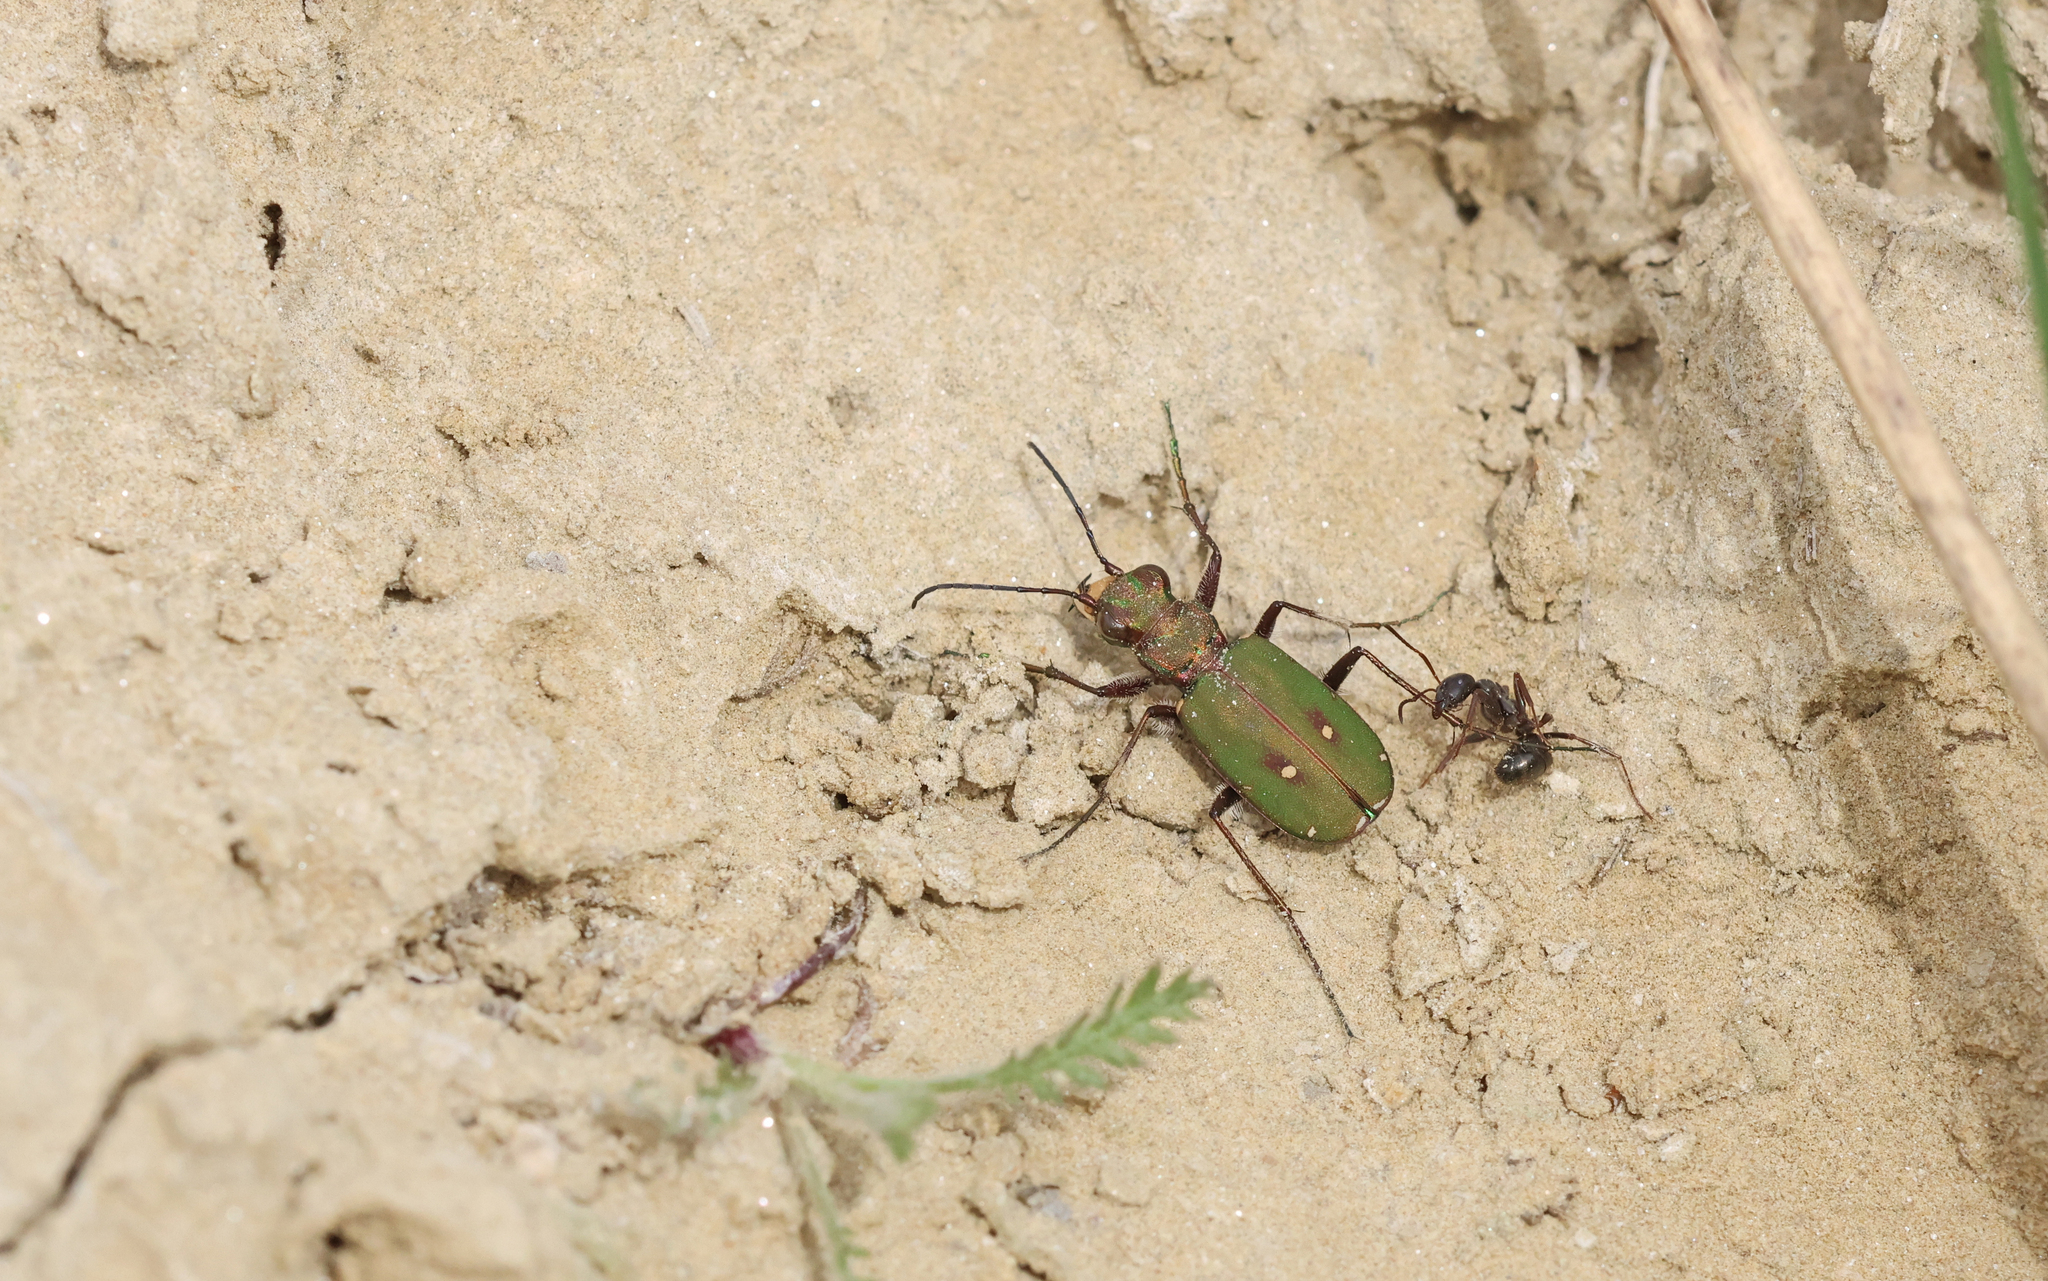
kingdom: Animalia
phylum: Arthropoda
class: Insecta
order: Coleoptera
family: Carabidae
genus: Cicindela
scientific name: Cicindela campestris
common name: Common tiger beetle
